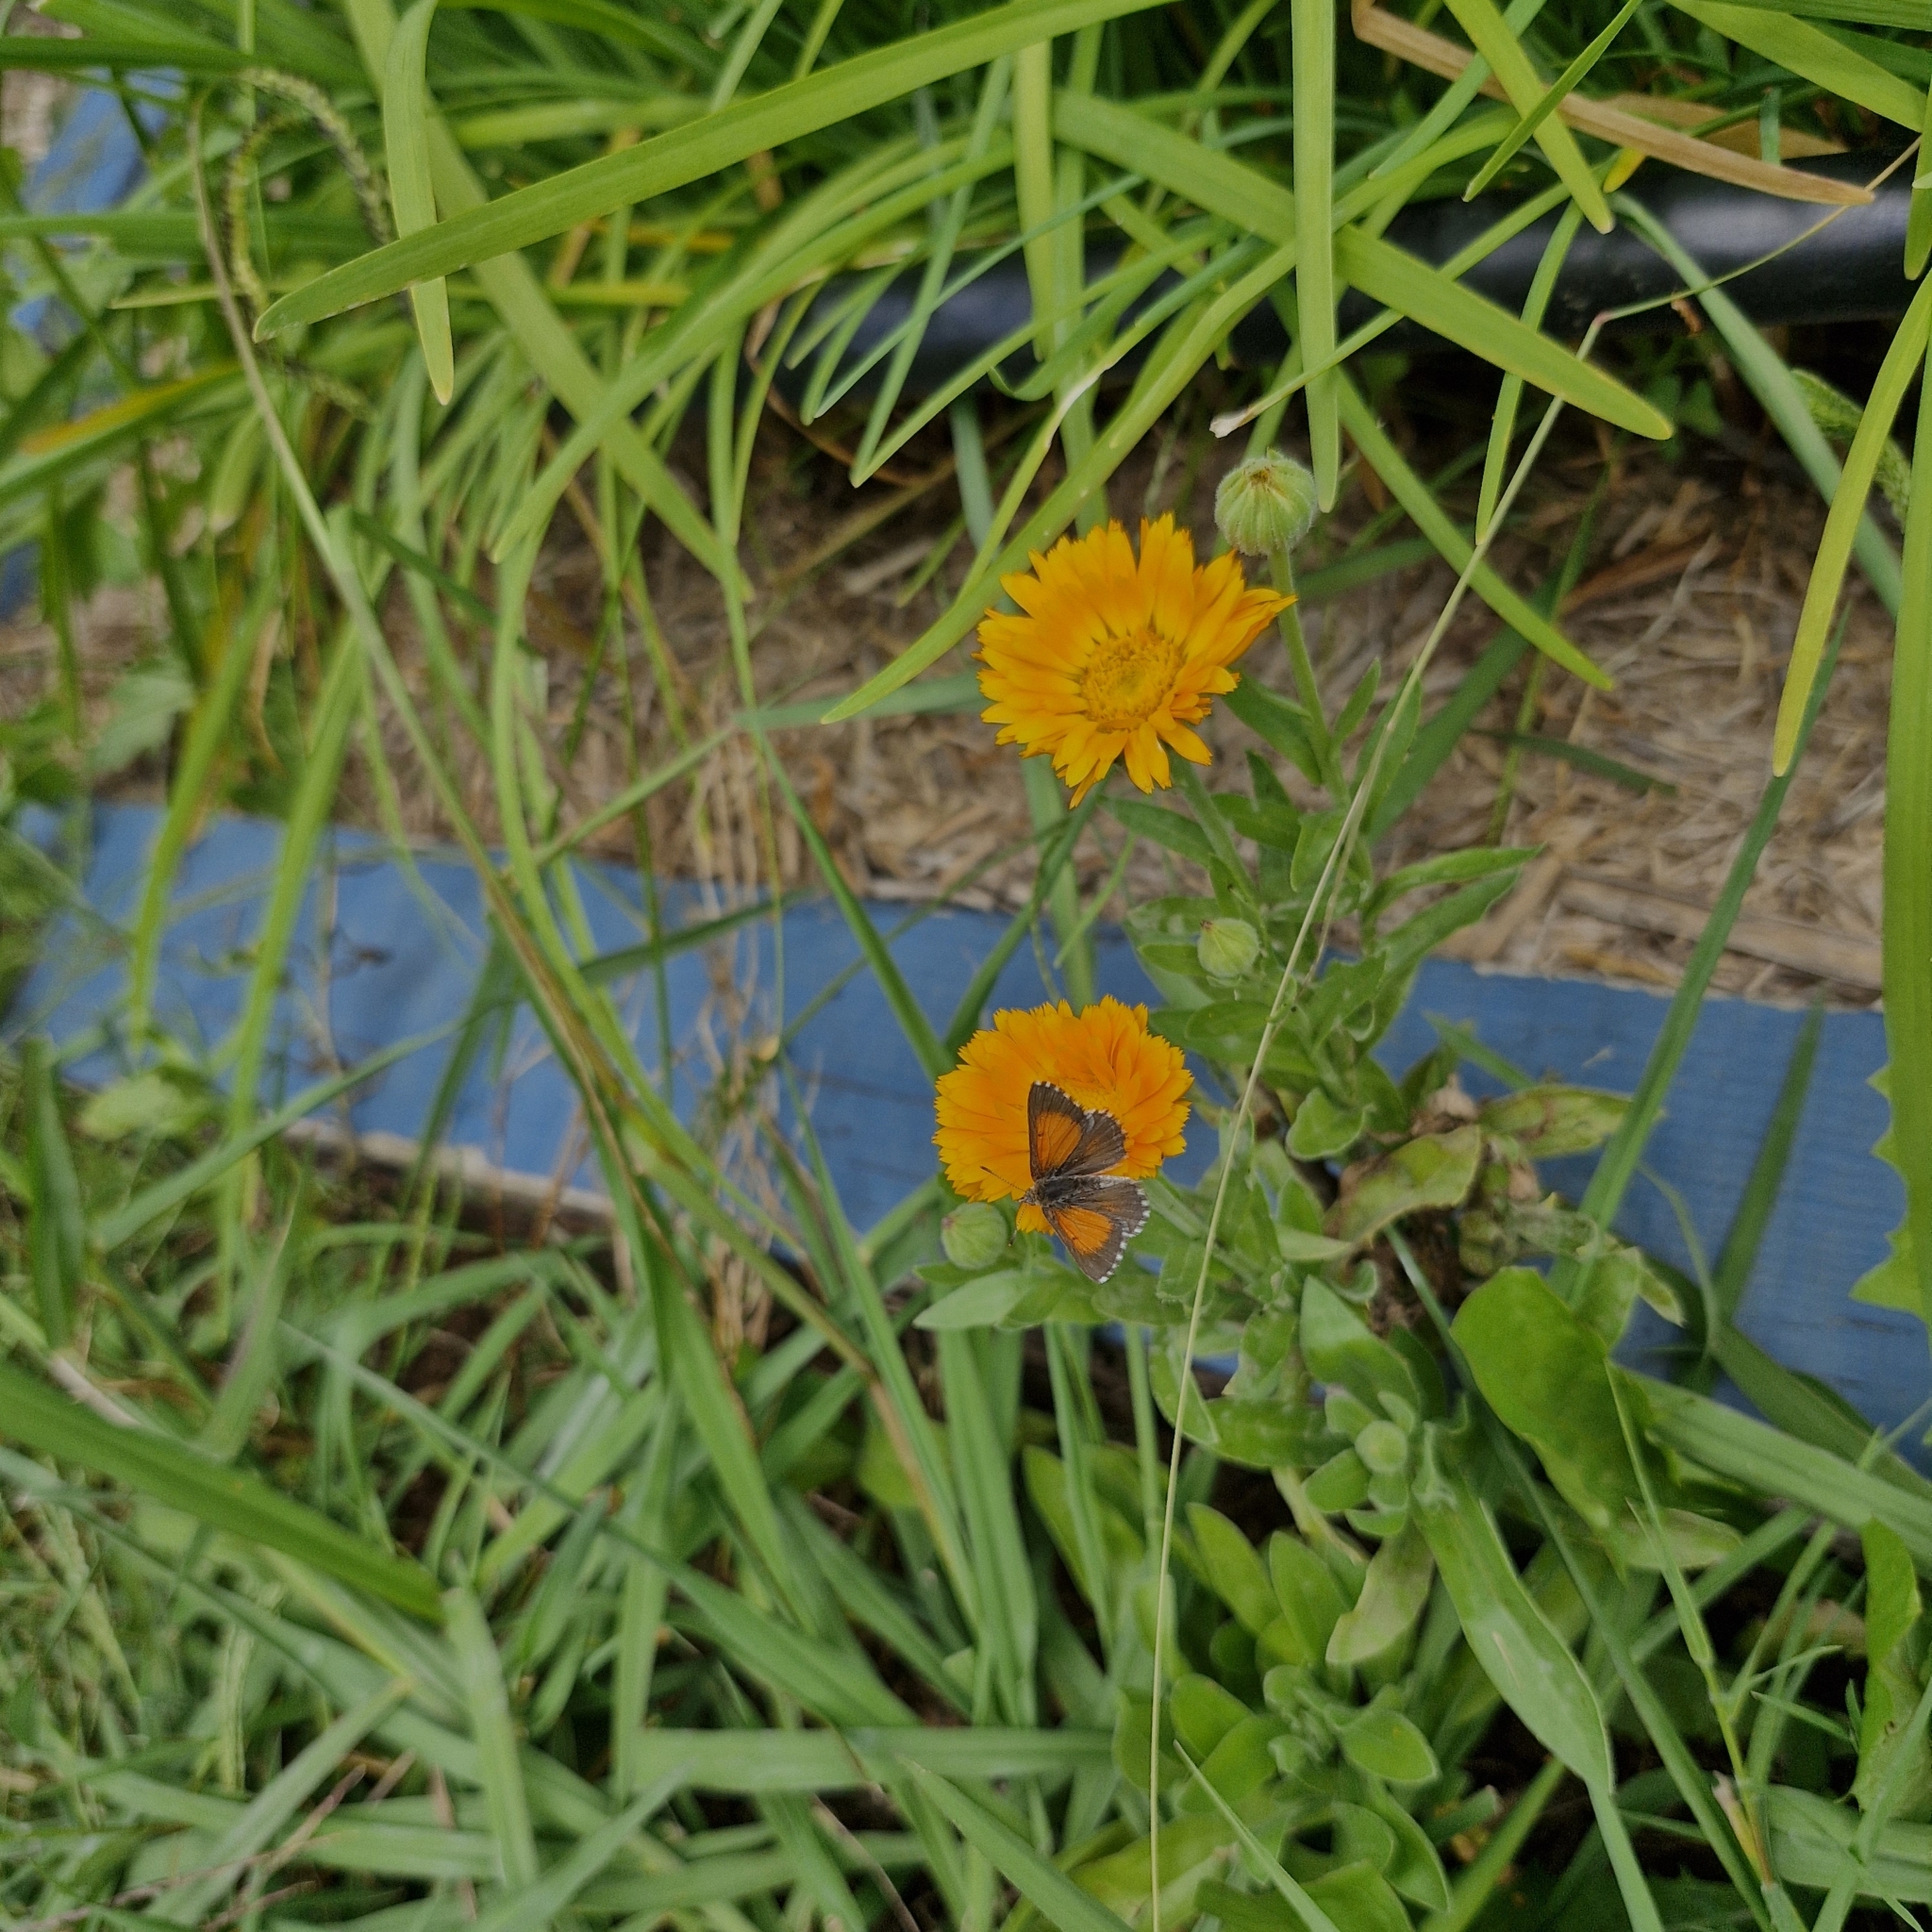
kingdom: Animalia
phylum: Arthropoda
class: Insecta
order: Lepidoptera
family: Lycaenidae
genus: Lucia
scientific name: Lucia limbaria
